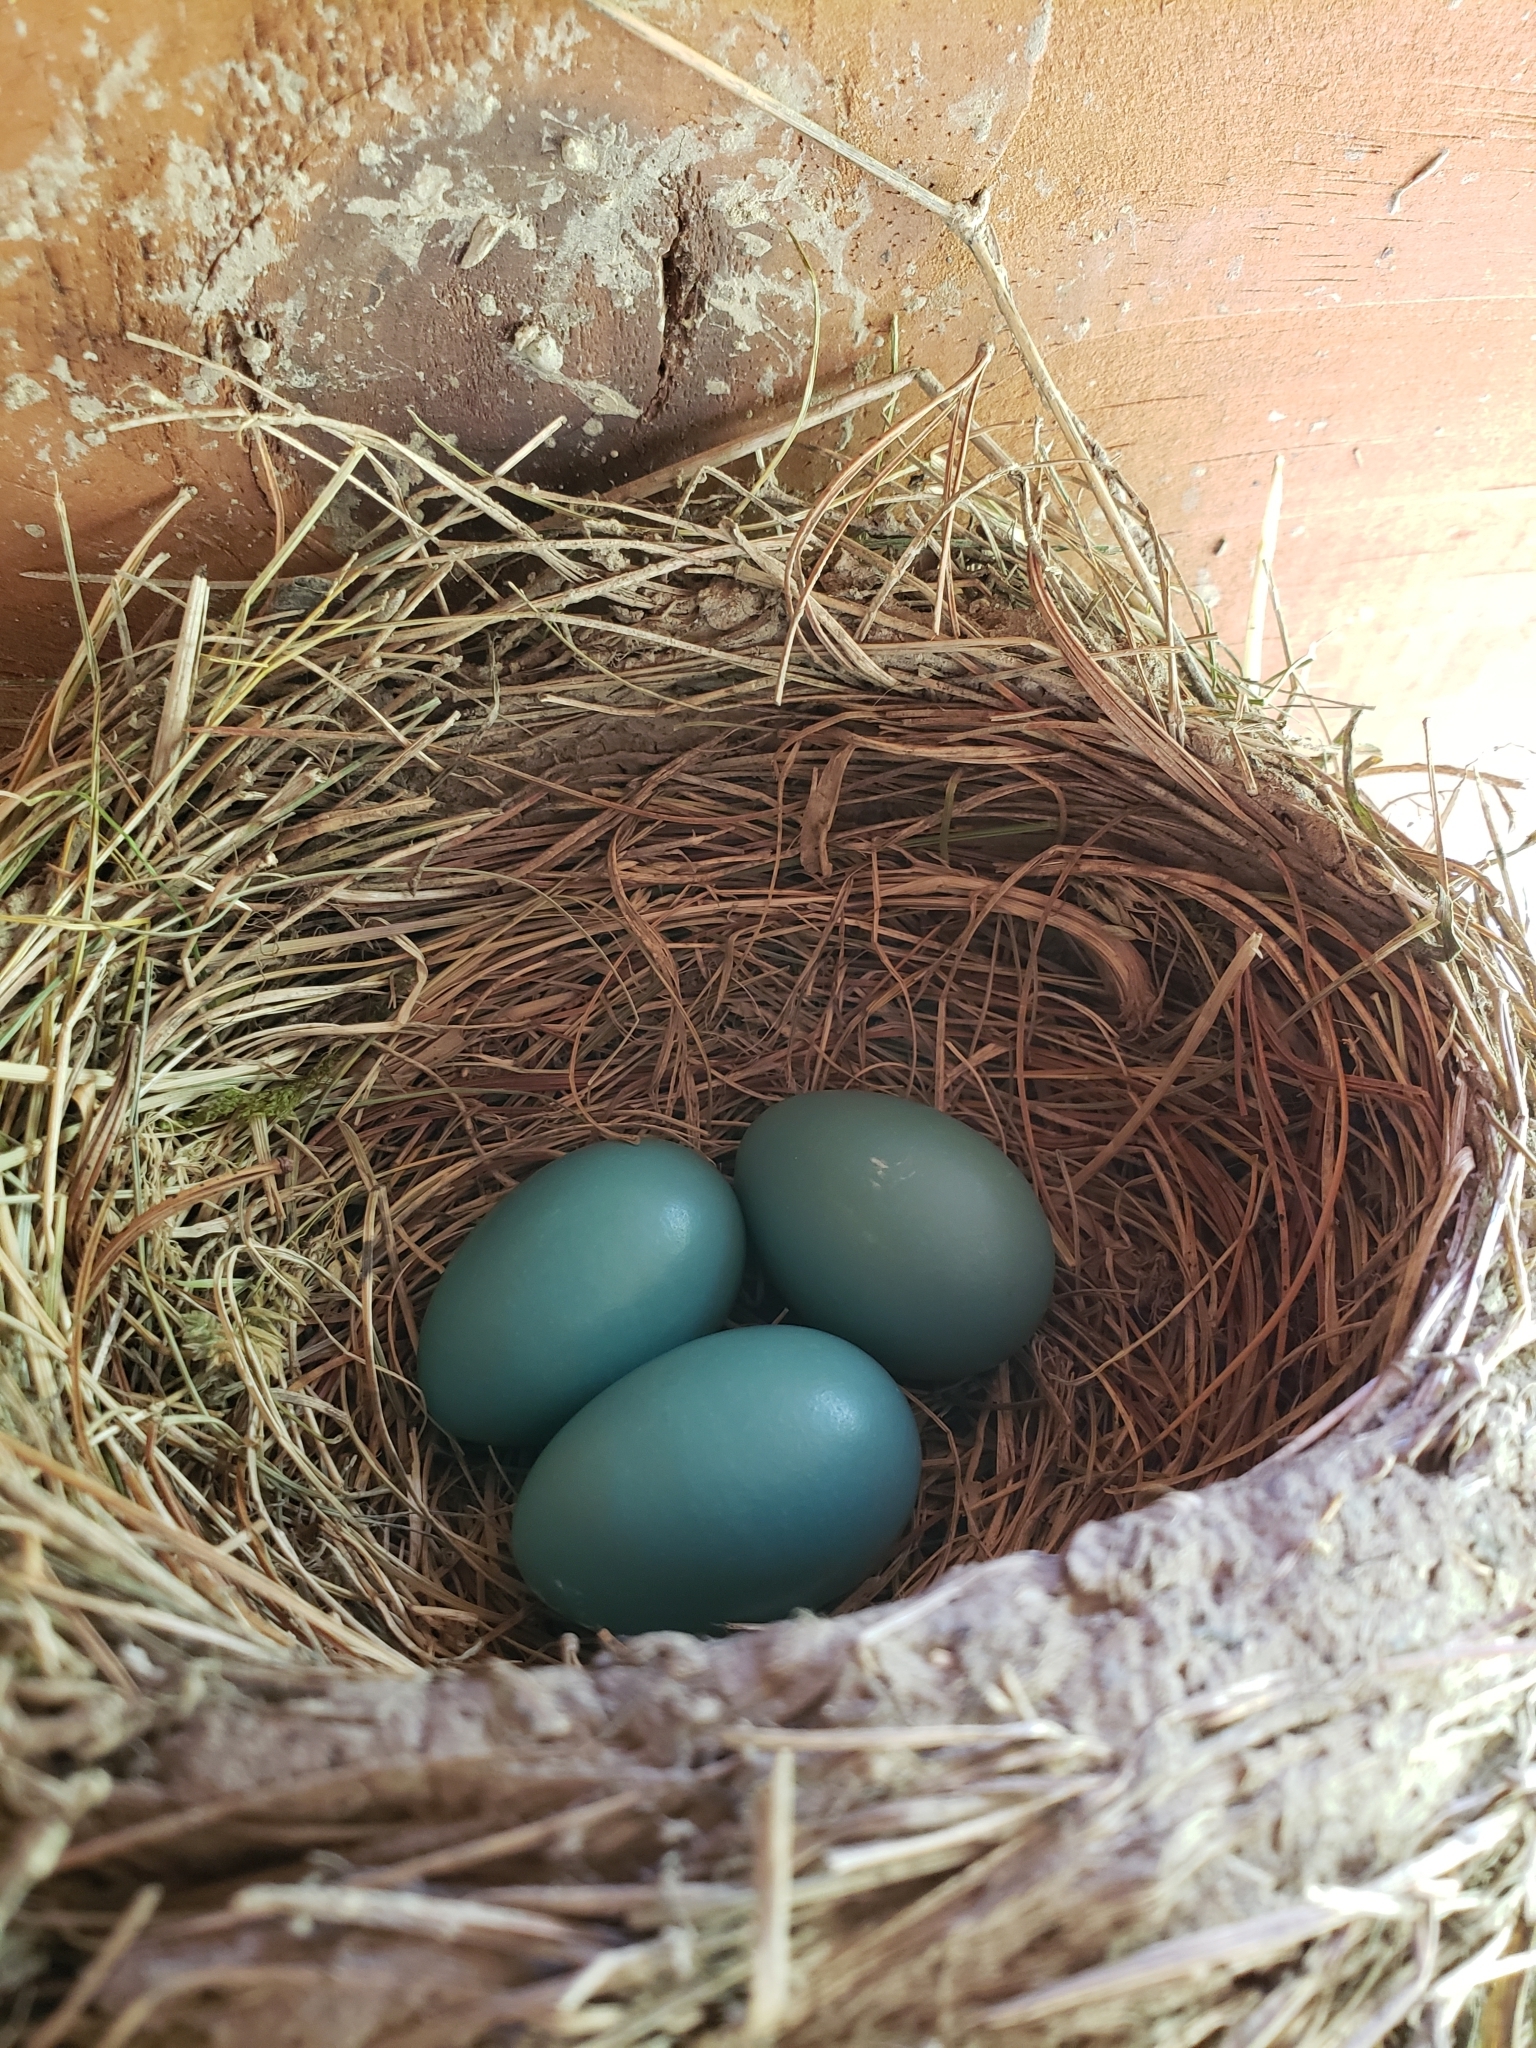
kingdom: Animalia
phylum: Chordata
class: Aves
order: Passeriformes
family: Turdidae
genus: Turdus
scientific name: Turdus migratorius
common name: American robin
